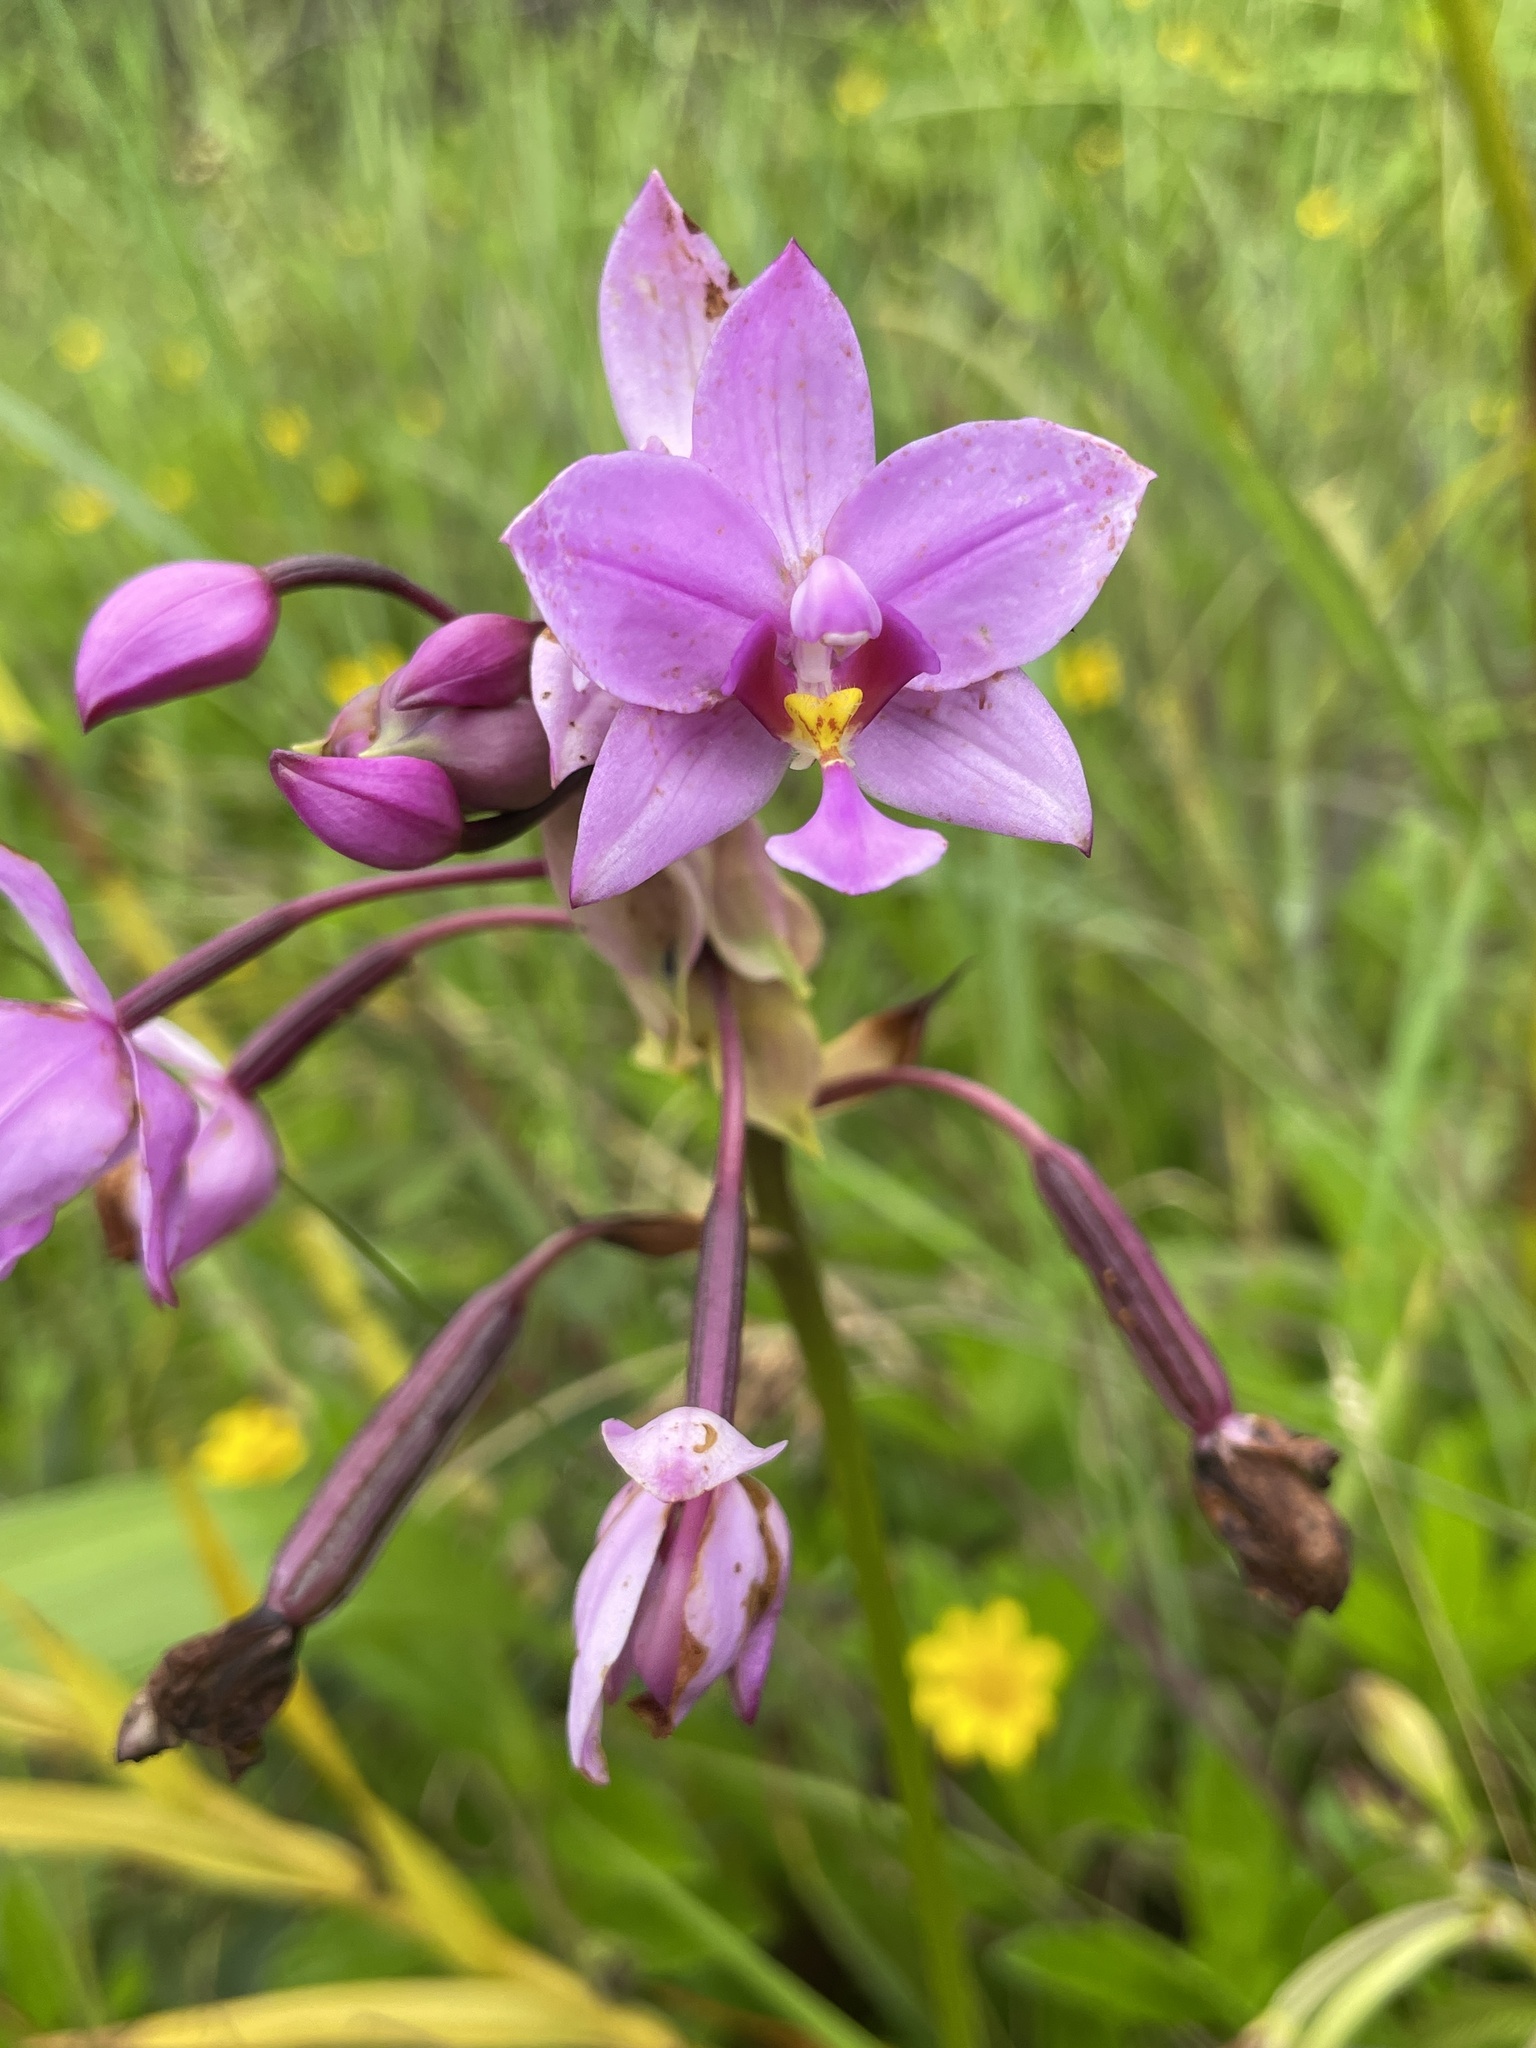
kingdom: Plantae
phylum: Tracheophyta
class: Liliopsida
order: Asparagales
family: Orchidaceae
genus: Spathoglottis
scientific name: Spathoglottis plicata
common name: Philippine ground orchid
